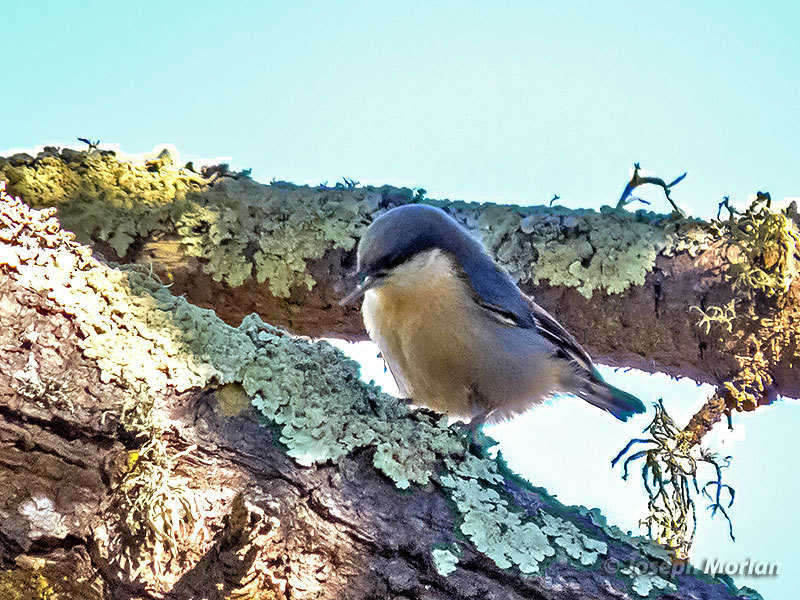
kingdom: Animalia
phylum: Chordata
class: Aves
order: Passeriformes
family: Sittidae
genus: Sitta
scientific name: Sitta pygmaea
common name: Pygmy nuthatch
